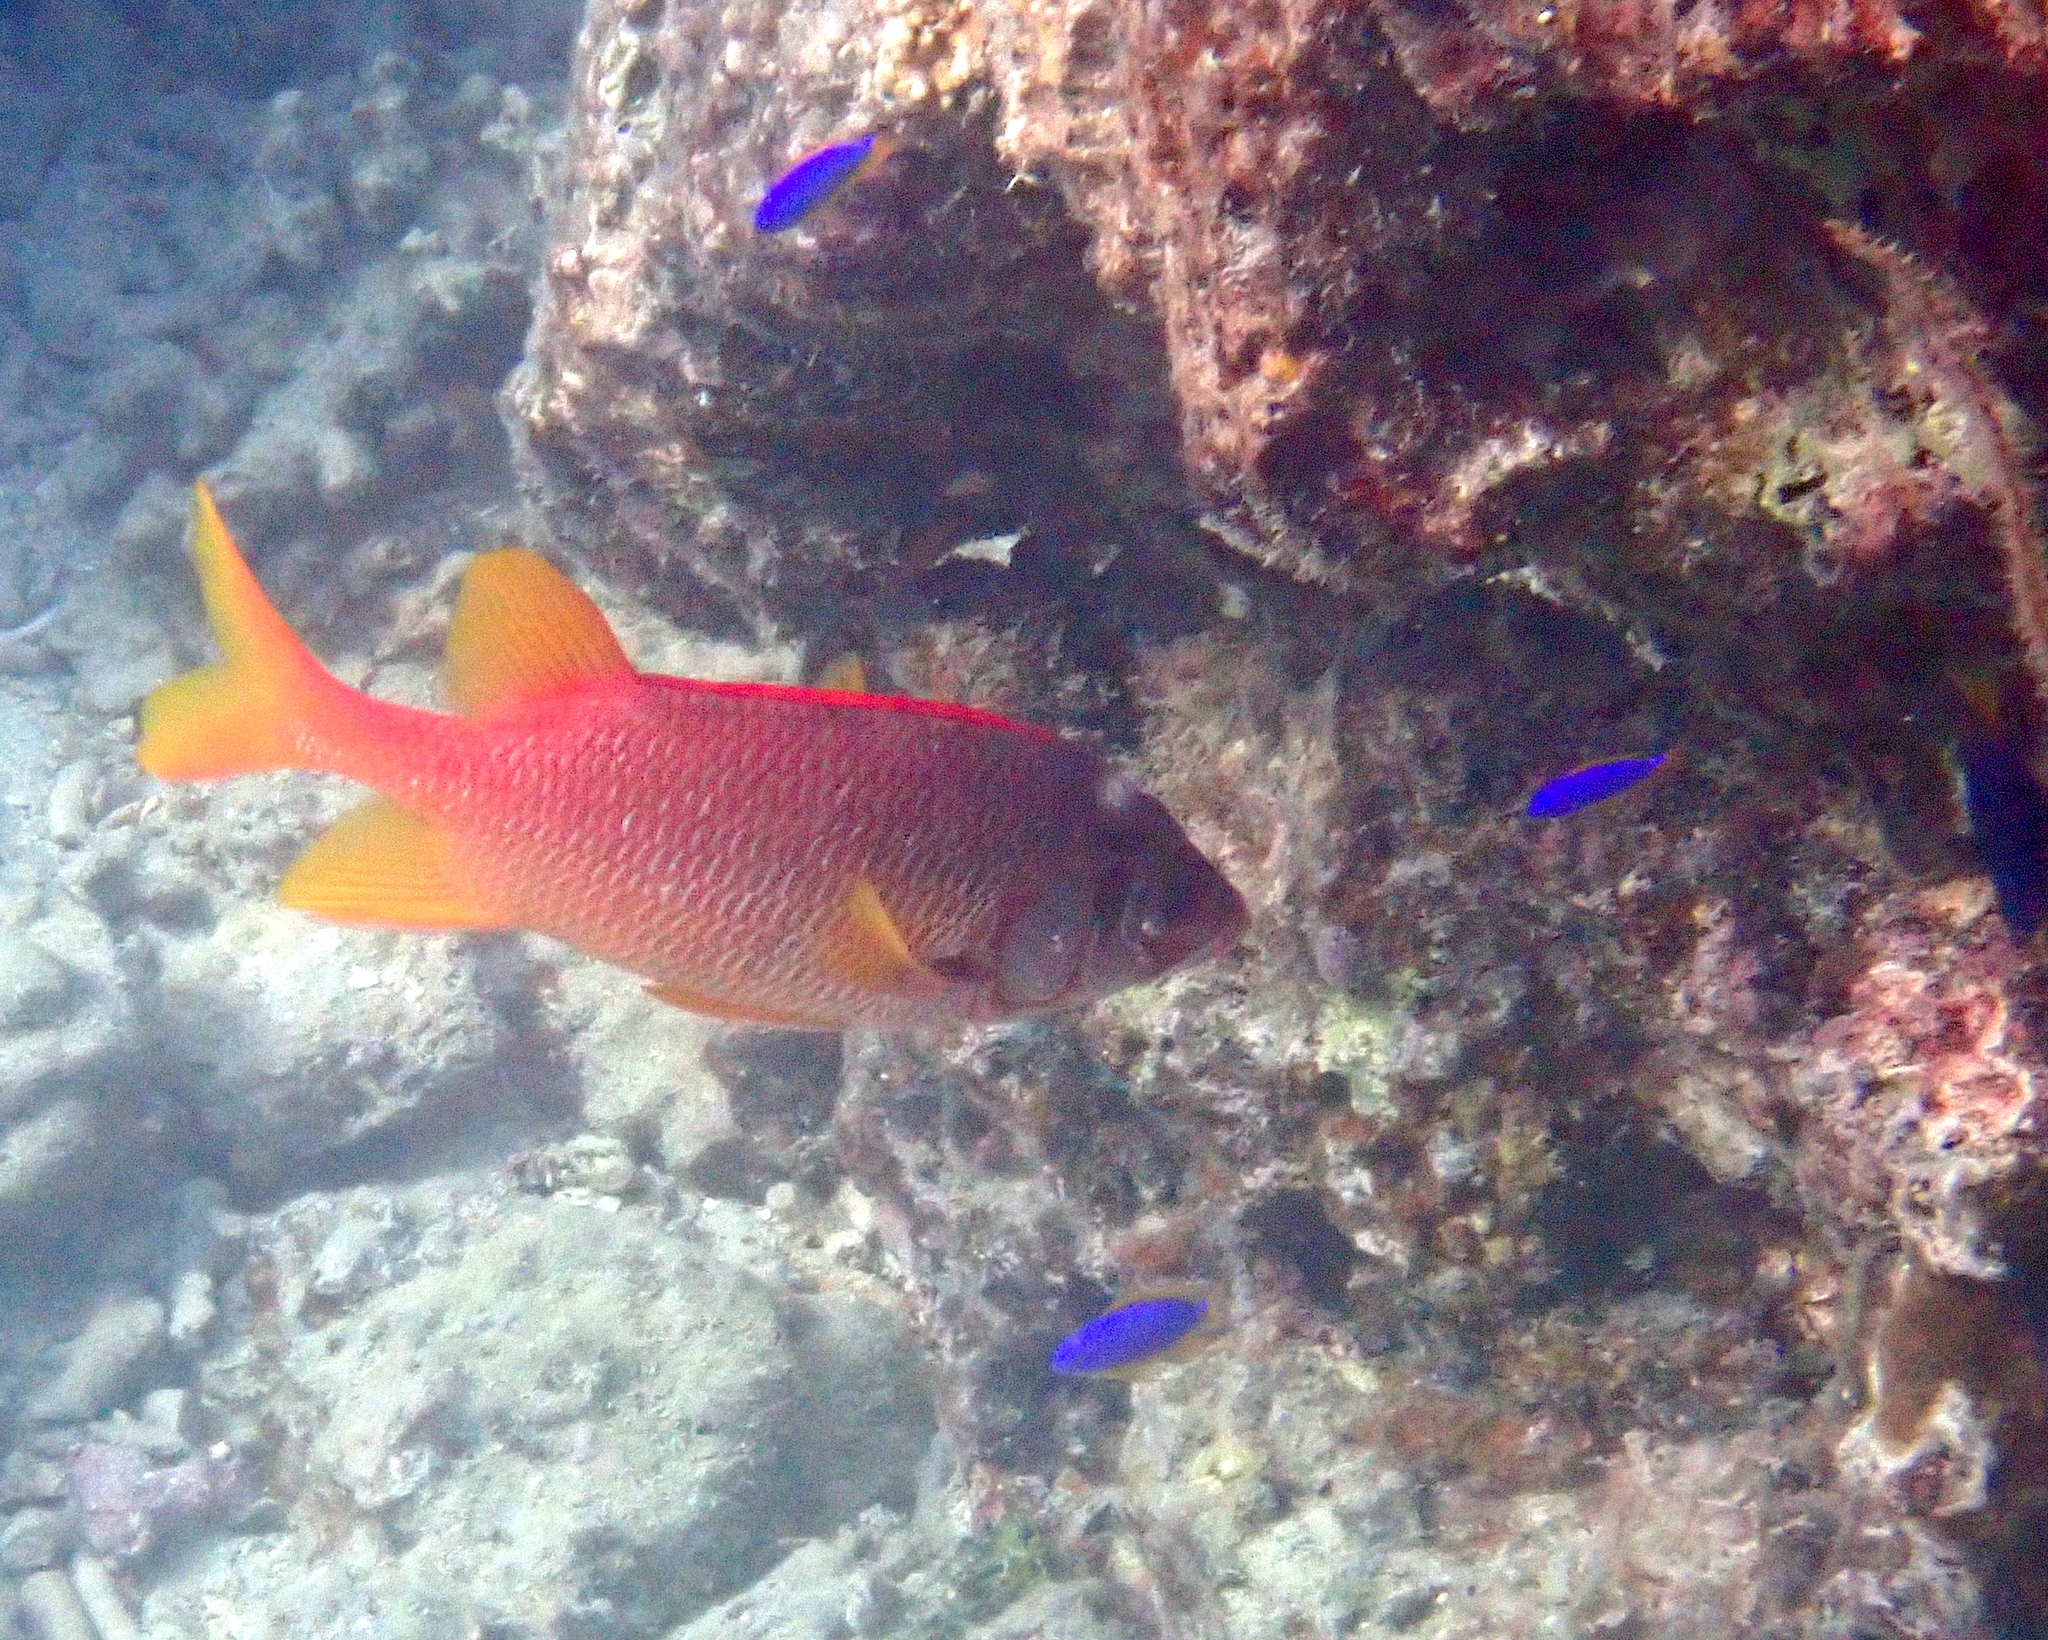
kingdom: Animalia
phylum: Chordata
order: Beryciformes
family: Holocentridae
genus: Sargocentron
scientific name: Sargocentron spiniferum
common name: Giant squirrelfish
